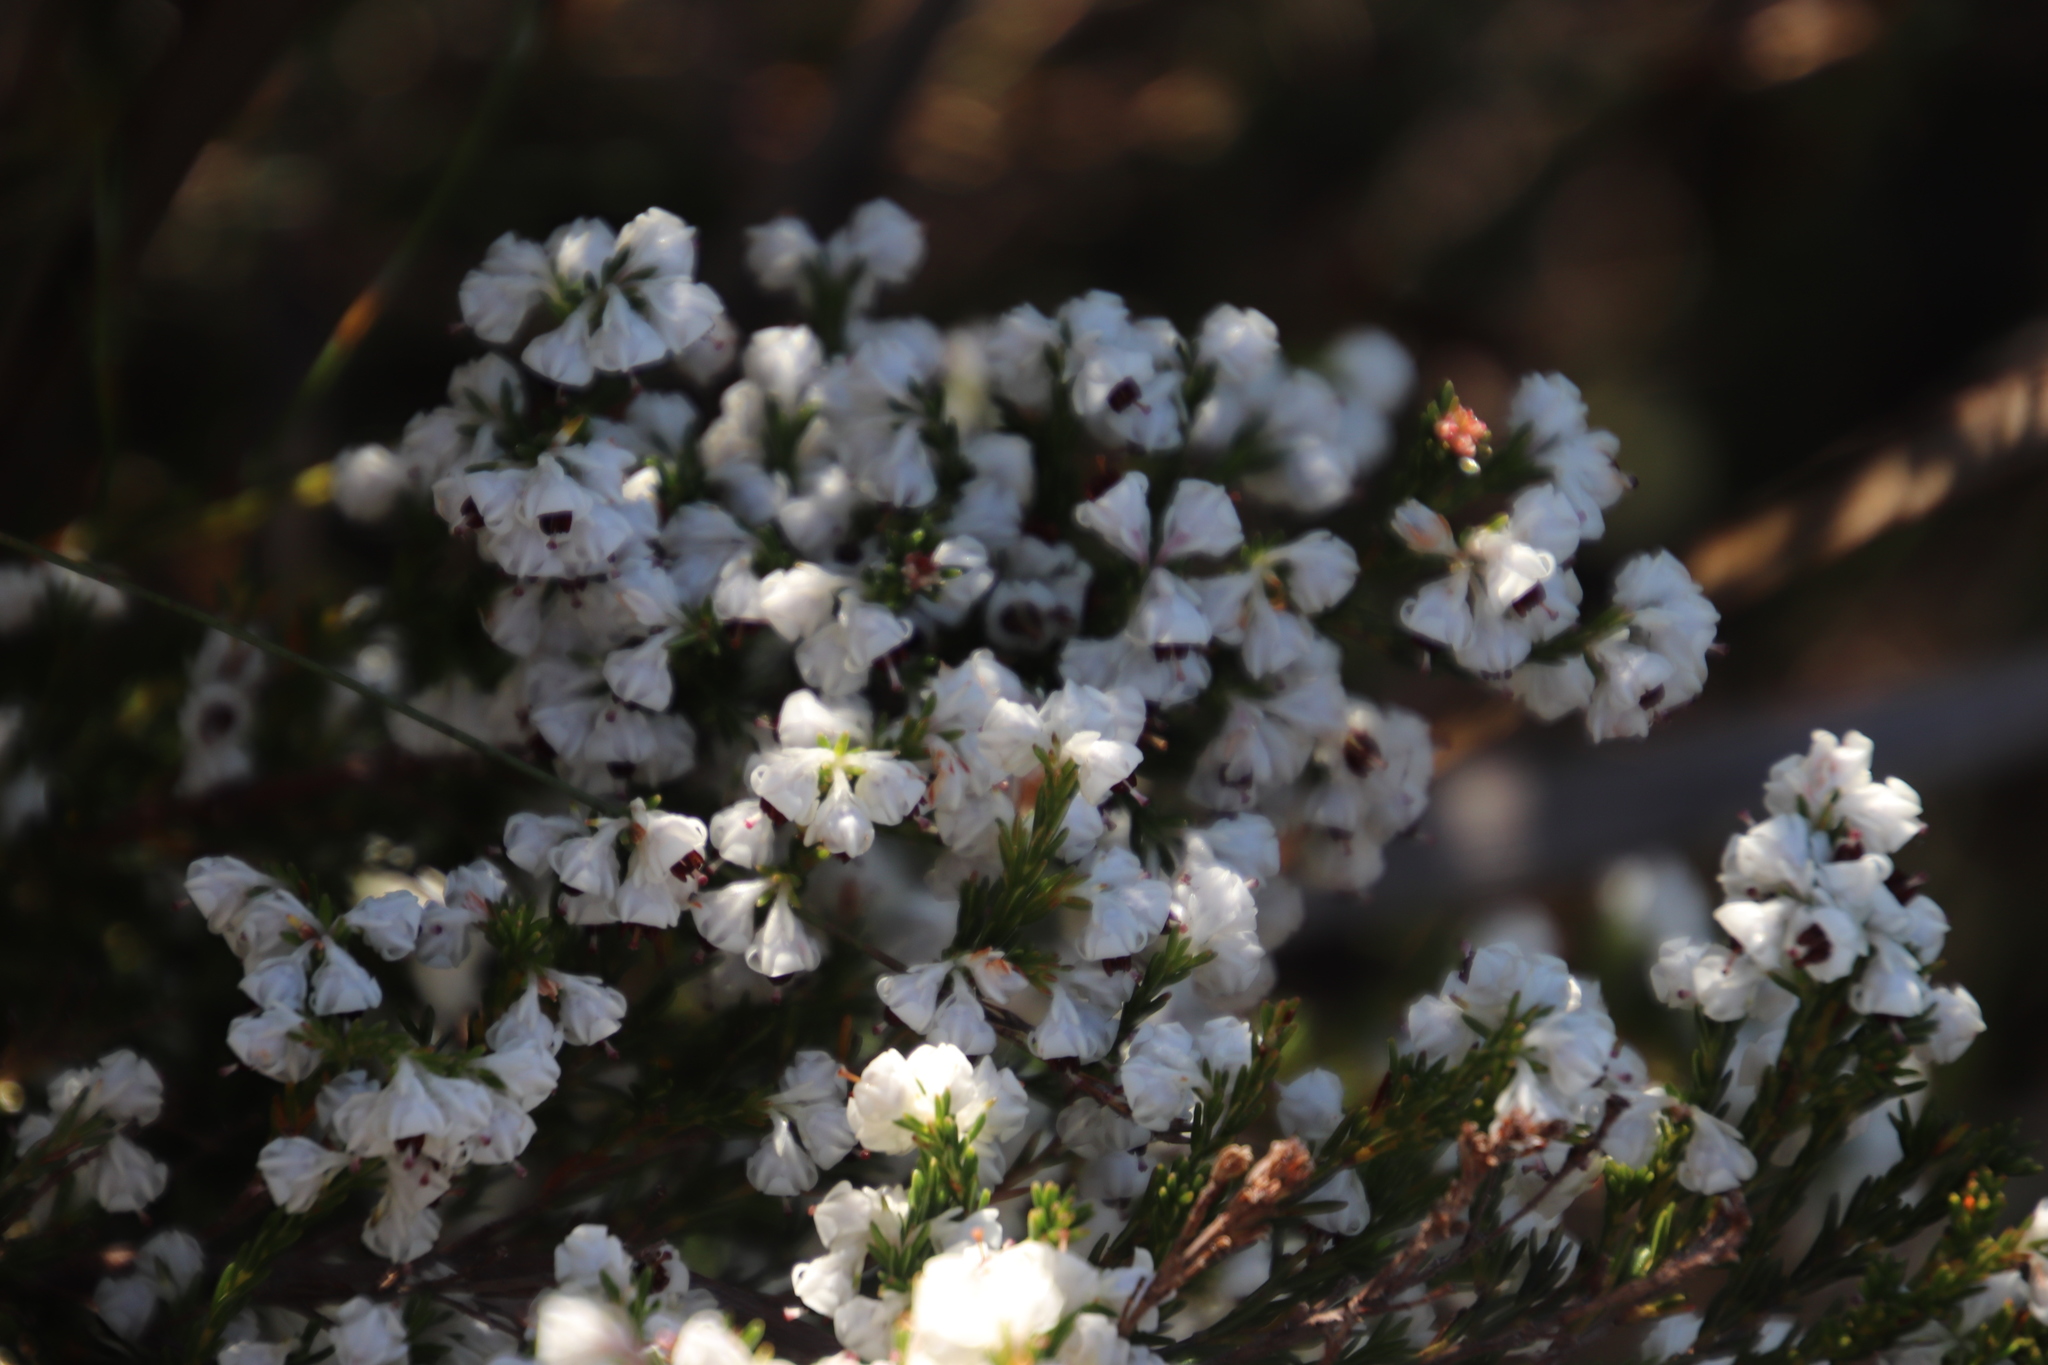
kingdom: Plantae
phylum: Tracheophyta
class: Magnoliopsida
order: Ericales
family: Ericaceae
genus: Erica
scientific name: Erica calycina
